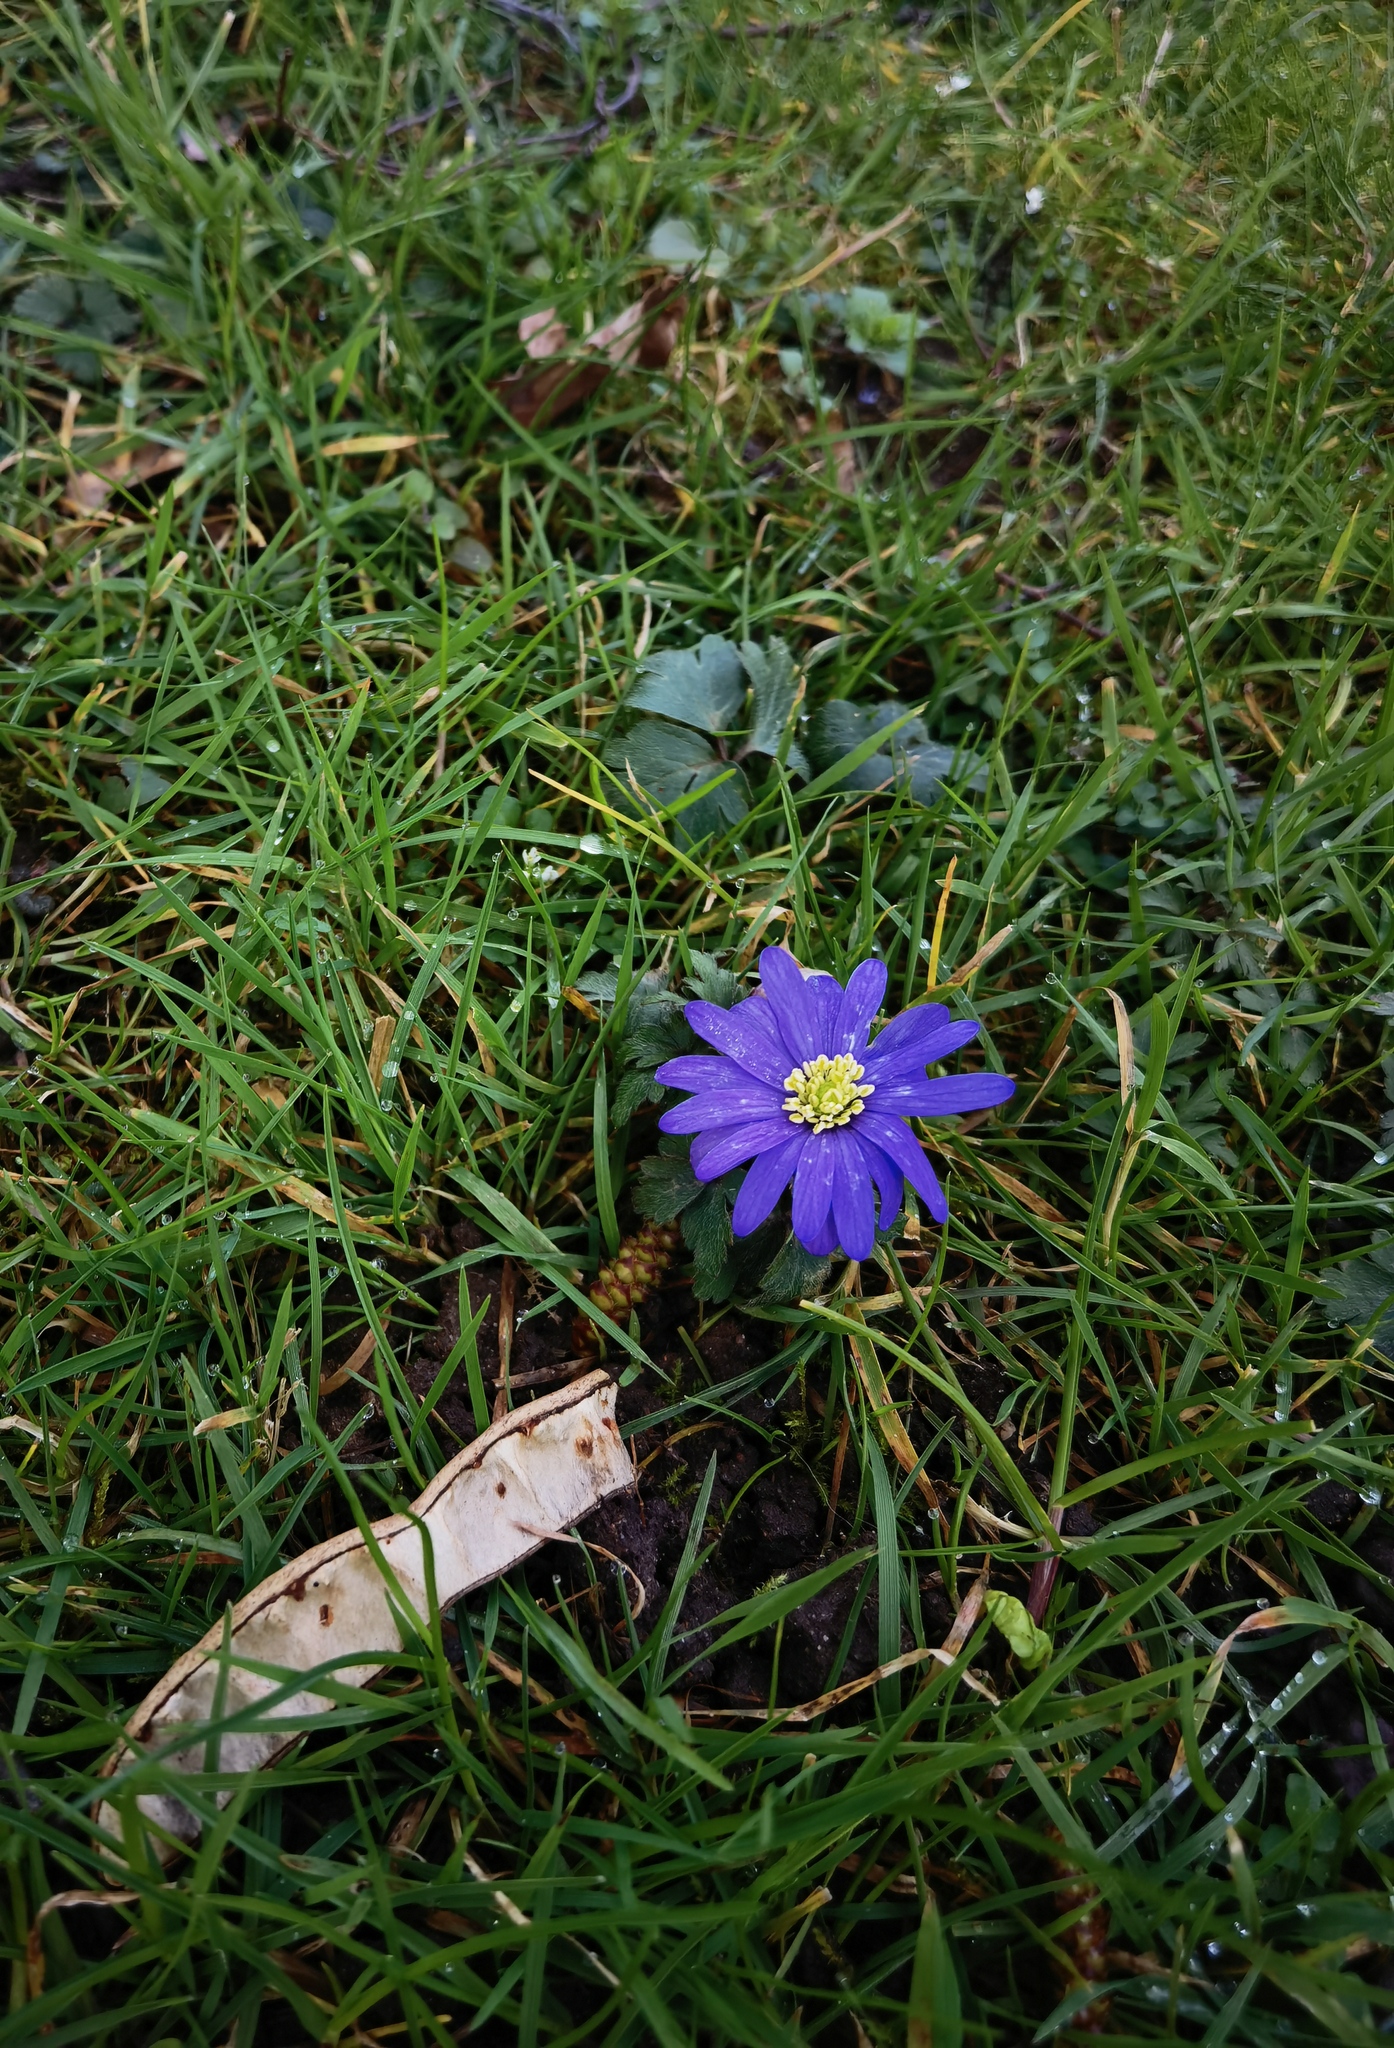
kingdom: Plantae
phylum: Tracheophyta
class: Magnoliopsida
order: Ranunculales
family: Ranunculaceae
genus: Anemone
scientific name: Anemone blanda
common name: Balkan anemone
